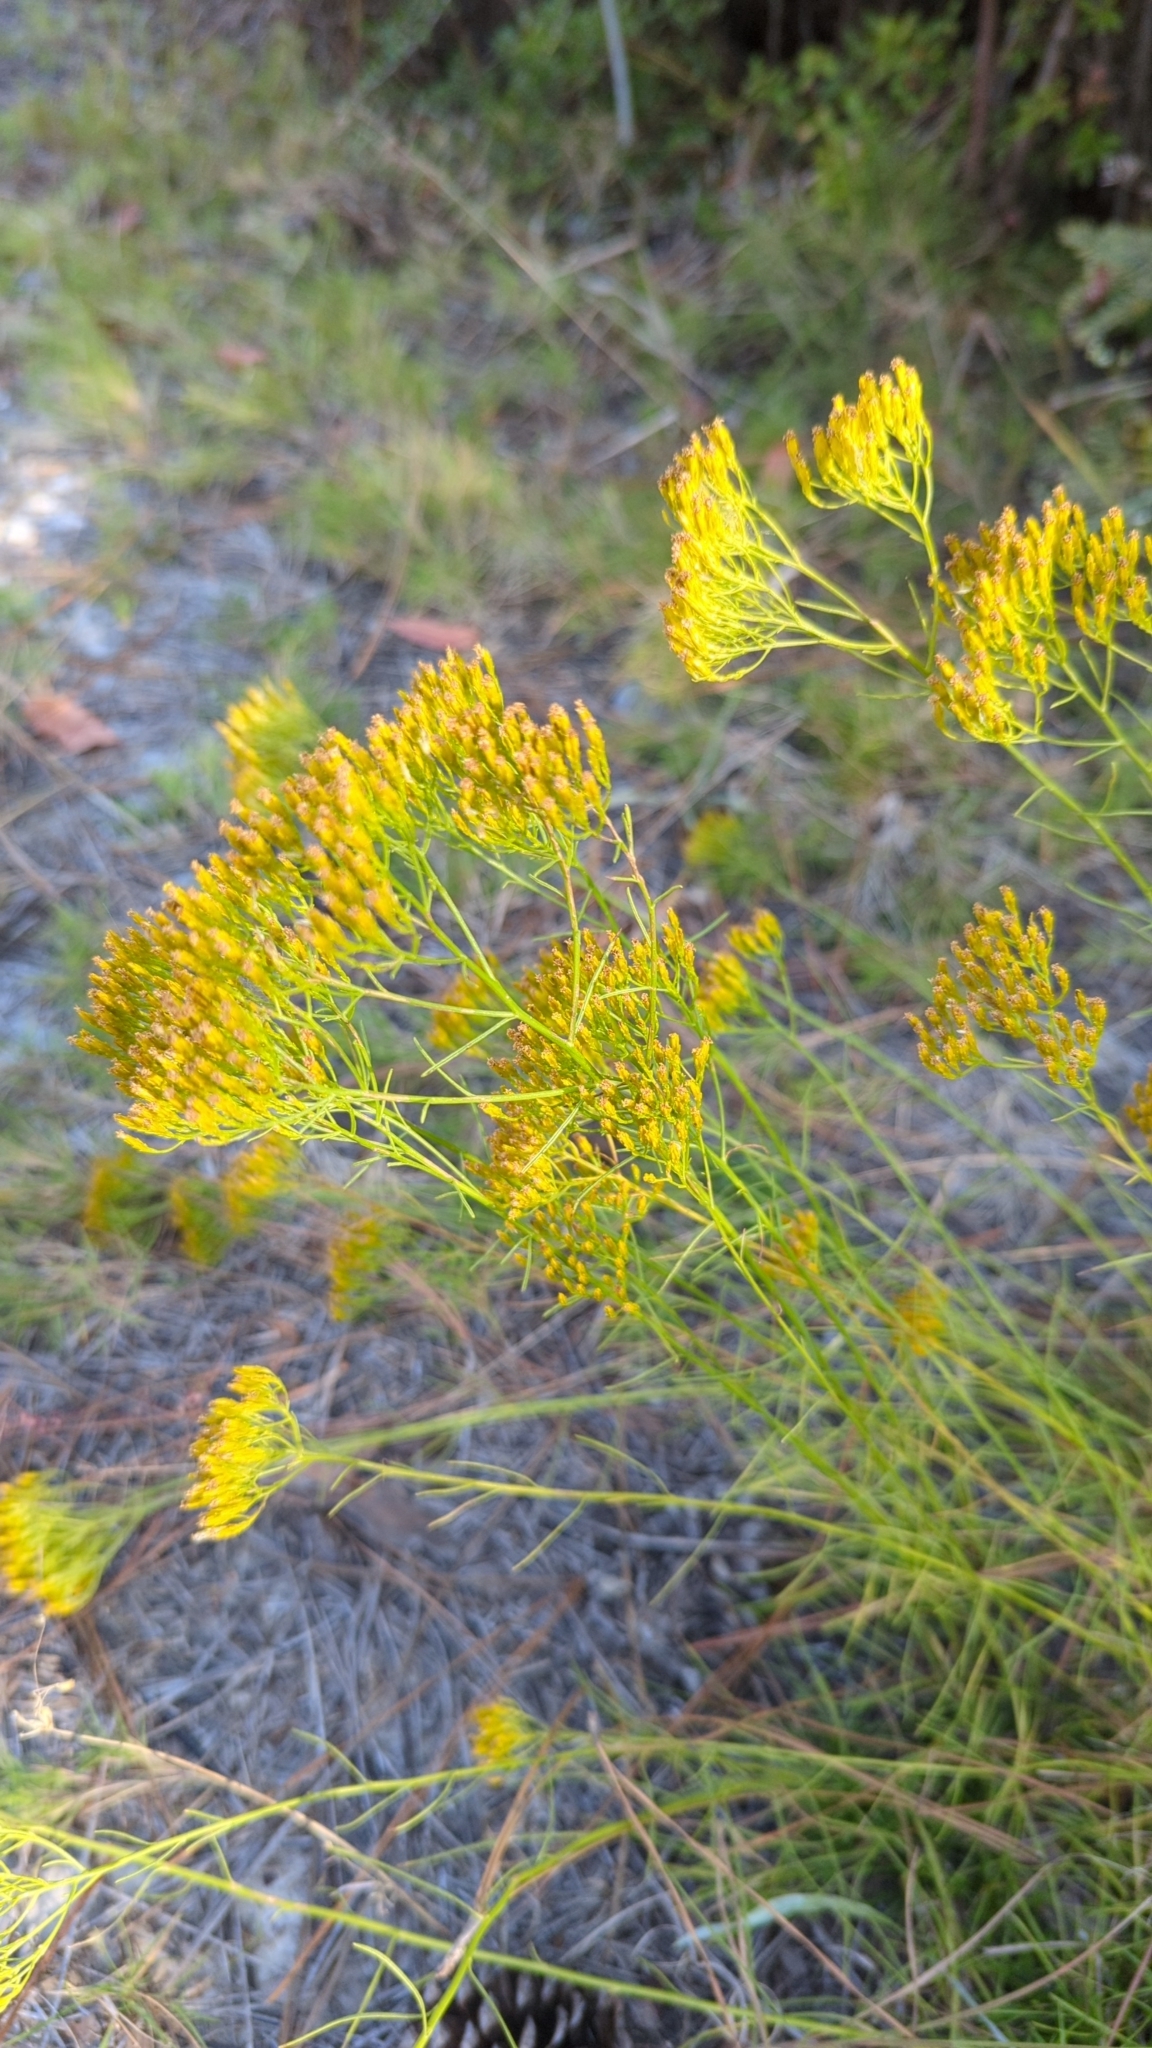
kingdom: Plantae
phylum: Tracheophyta
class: Magnoliopsida
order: Asterales
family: Asteraceae
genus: Bigelowia
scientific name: Bigelowia nuttallii
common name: Nuttall's rayless-goldenrod
